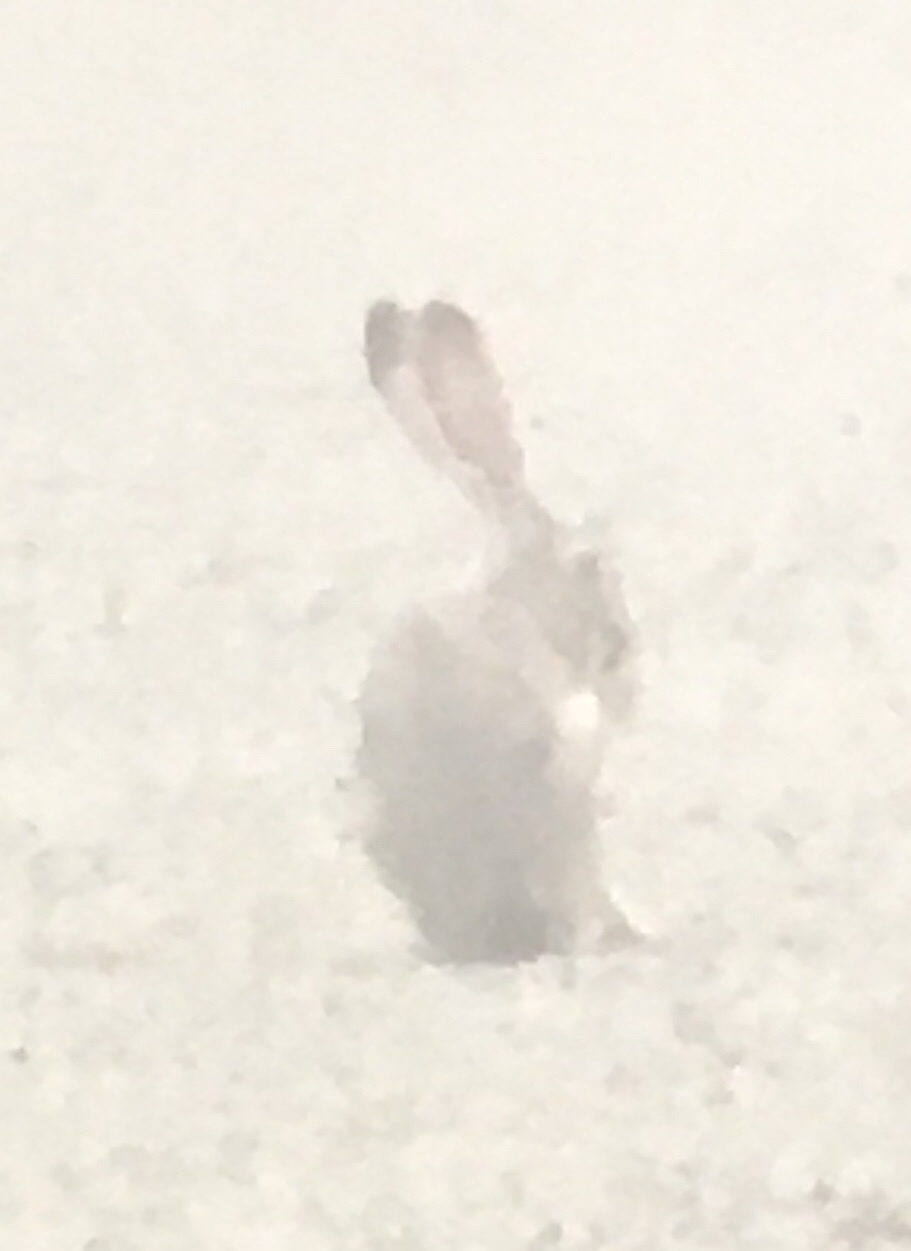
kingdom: Animalia
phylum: Chordata
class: Mammalia
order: Lagomorpha
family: Leporidae
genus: Lepus
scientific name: Lepus californicus
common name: Black-tailed jackrabbit
